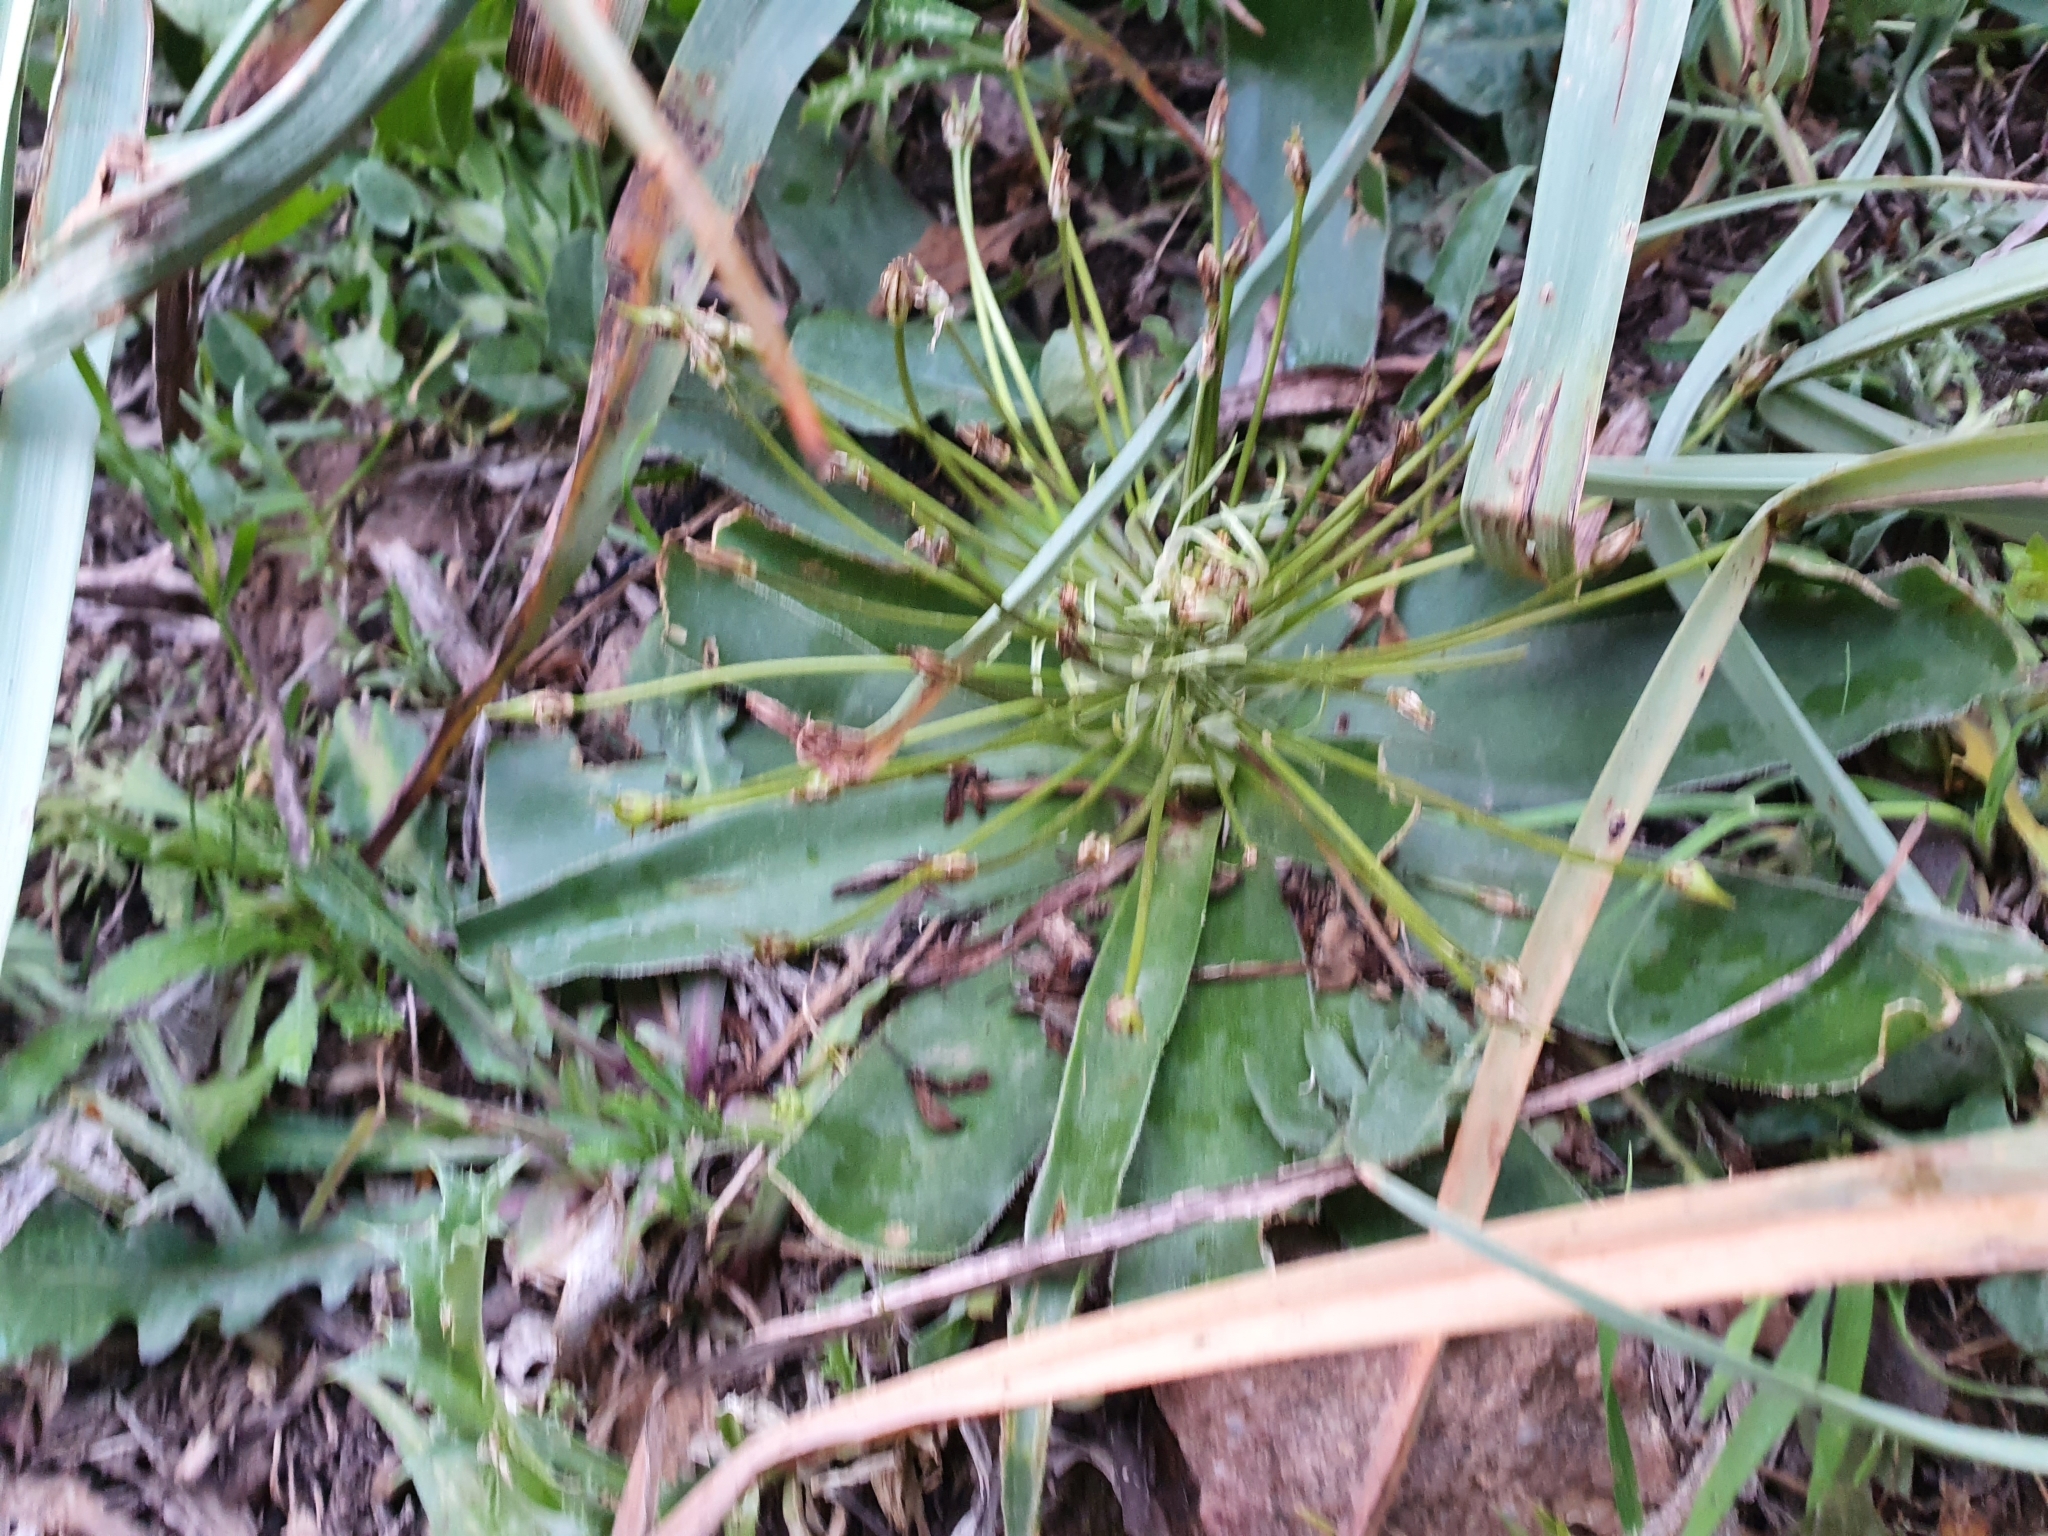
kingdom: Plantae
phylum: Tracheophyta
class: Liliopsida
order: Asparagales
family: Asparagaceae
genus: Scilla
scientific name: Scilla peruviana
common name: Portuguese squill
